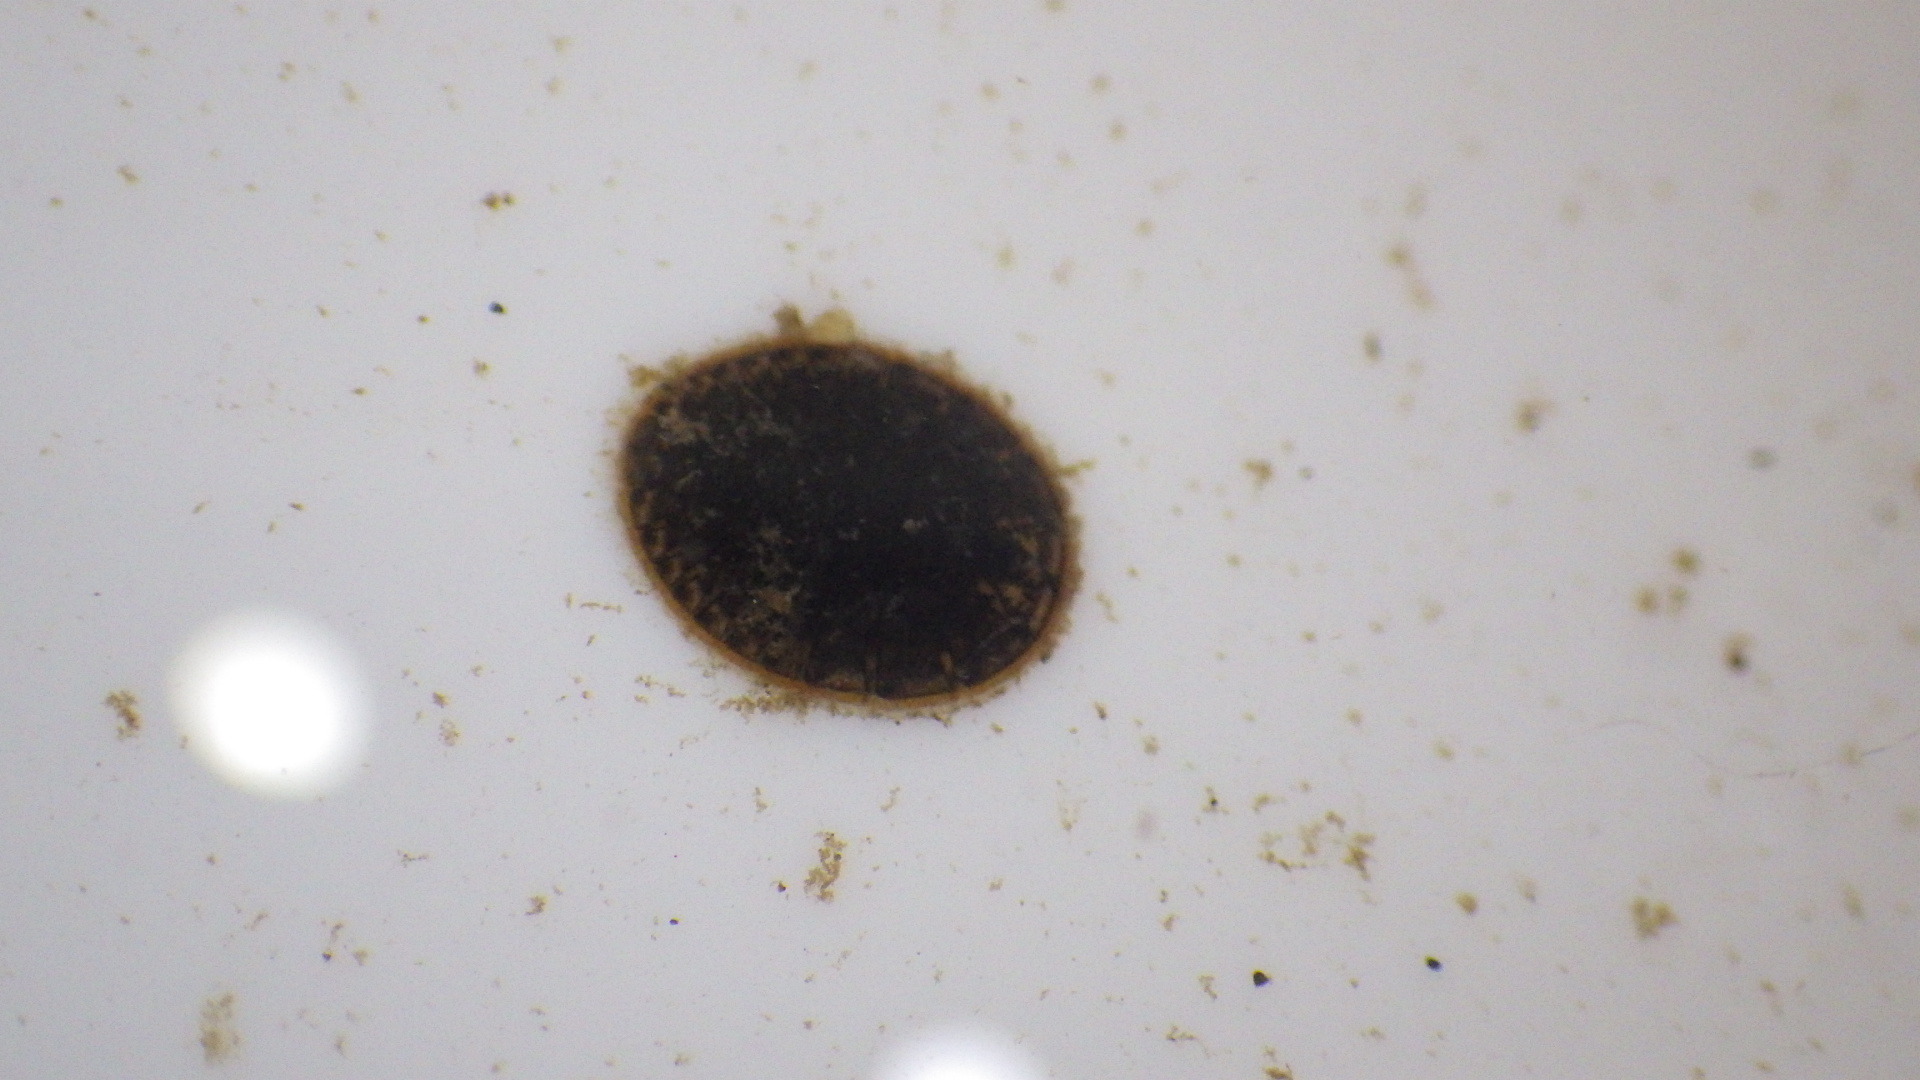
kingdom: Animalia
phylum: Arthropoda
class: Insecta
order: Coleoptera
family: Psephenidae
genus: Psephenus
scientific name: Psephenus herricki
